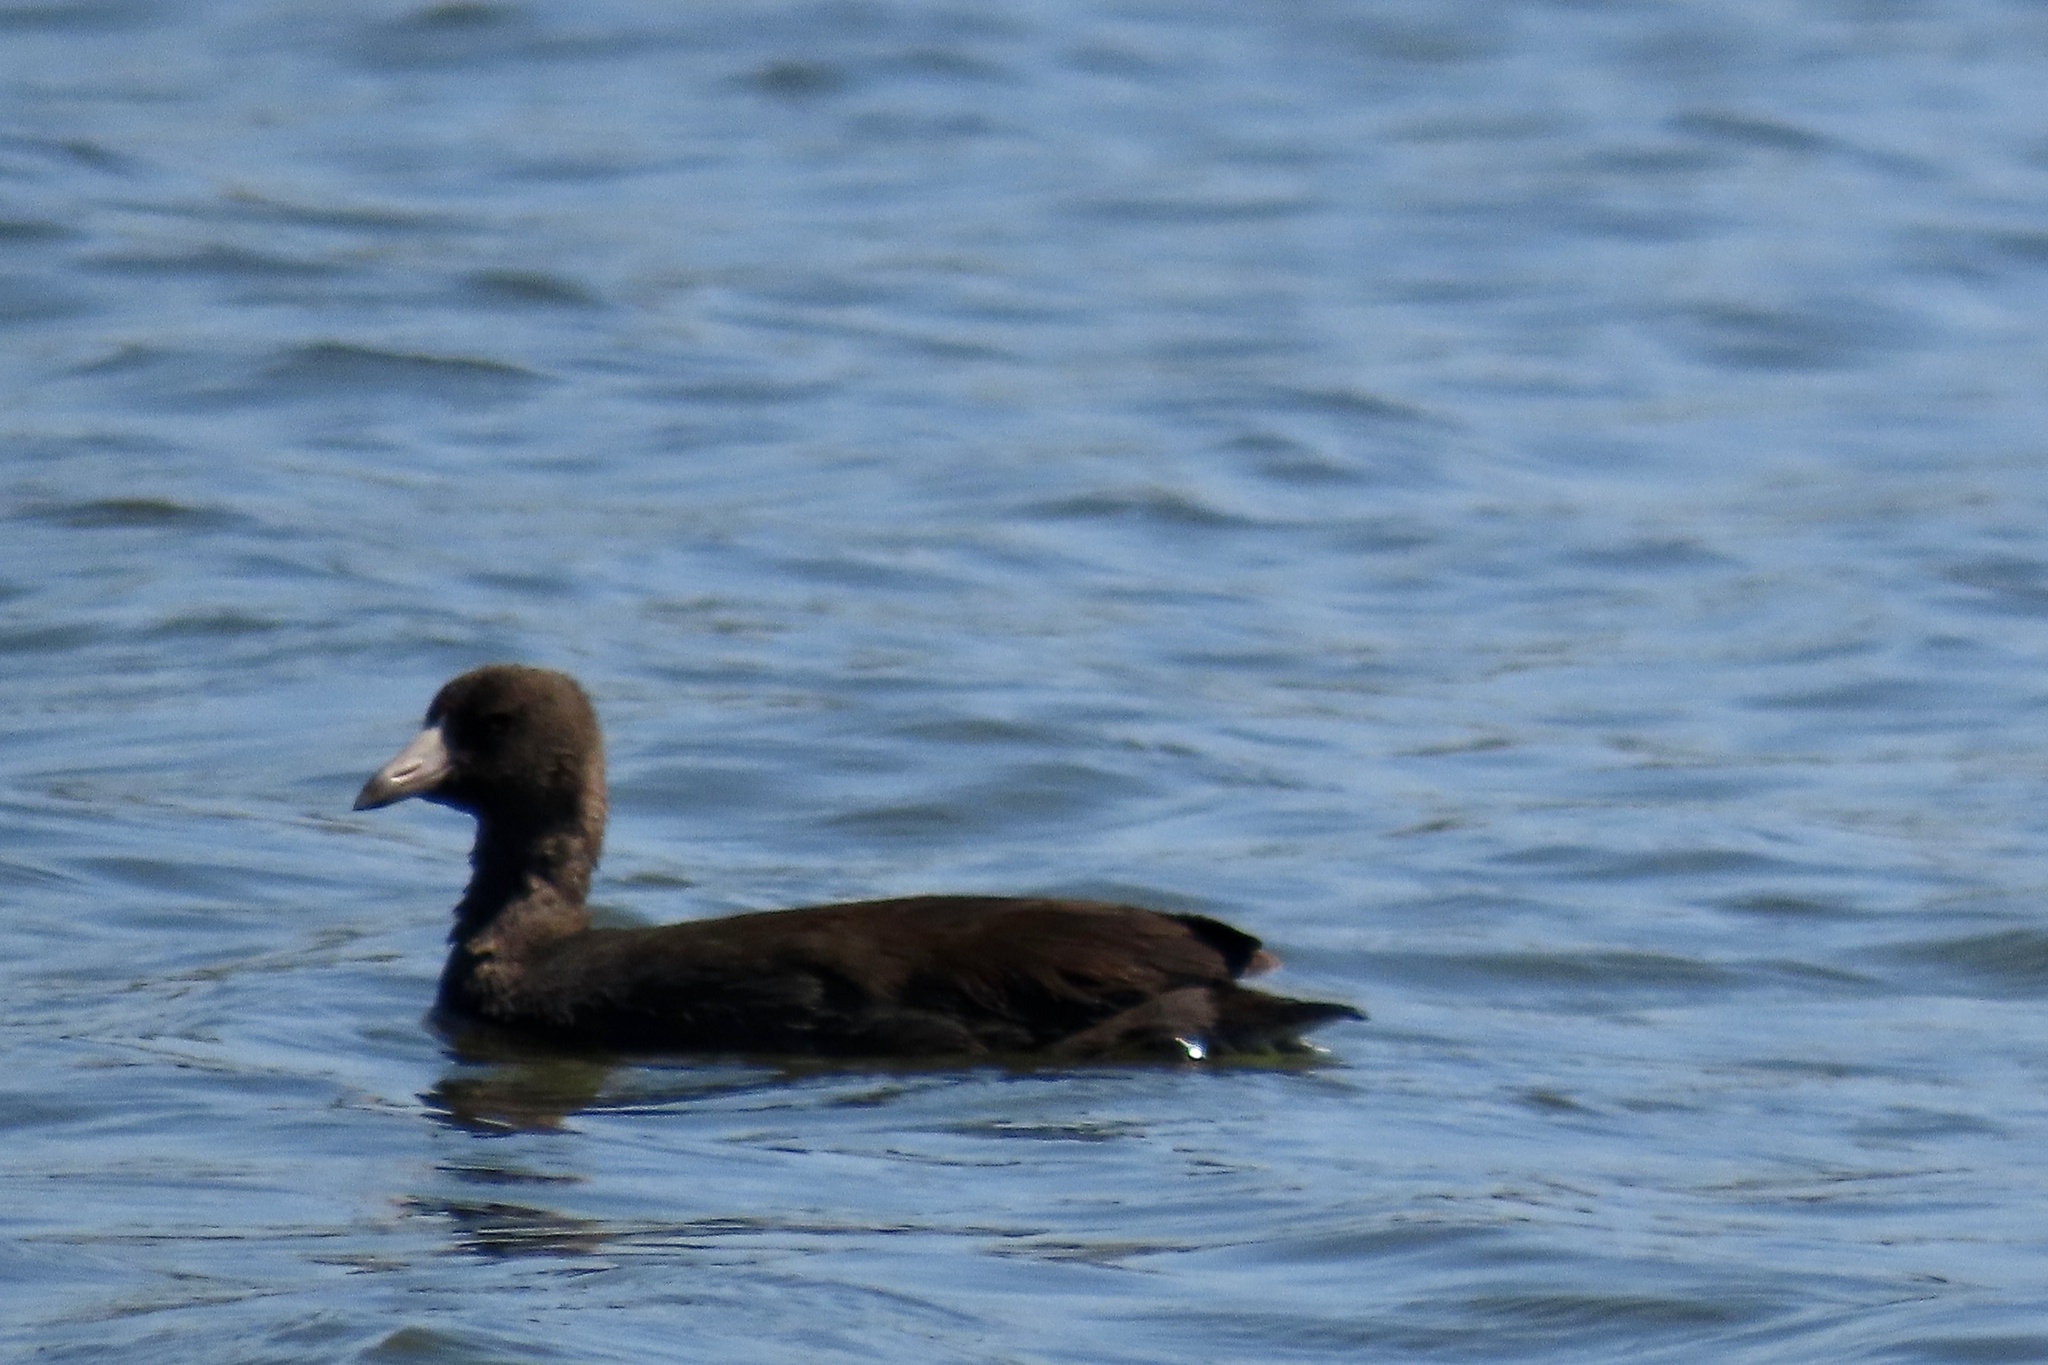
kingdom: Animalia
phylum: Chordata
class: Aves
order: Gruiformes
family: Rallidae
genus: Fulica
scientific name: Fulica americana
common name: American coot
